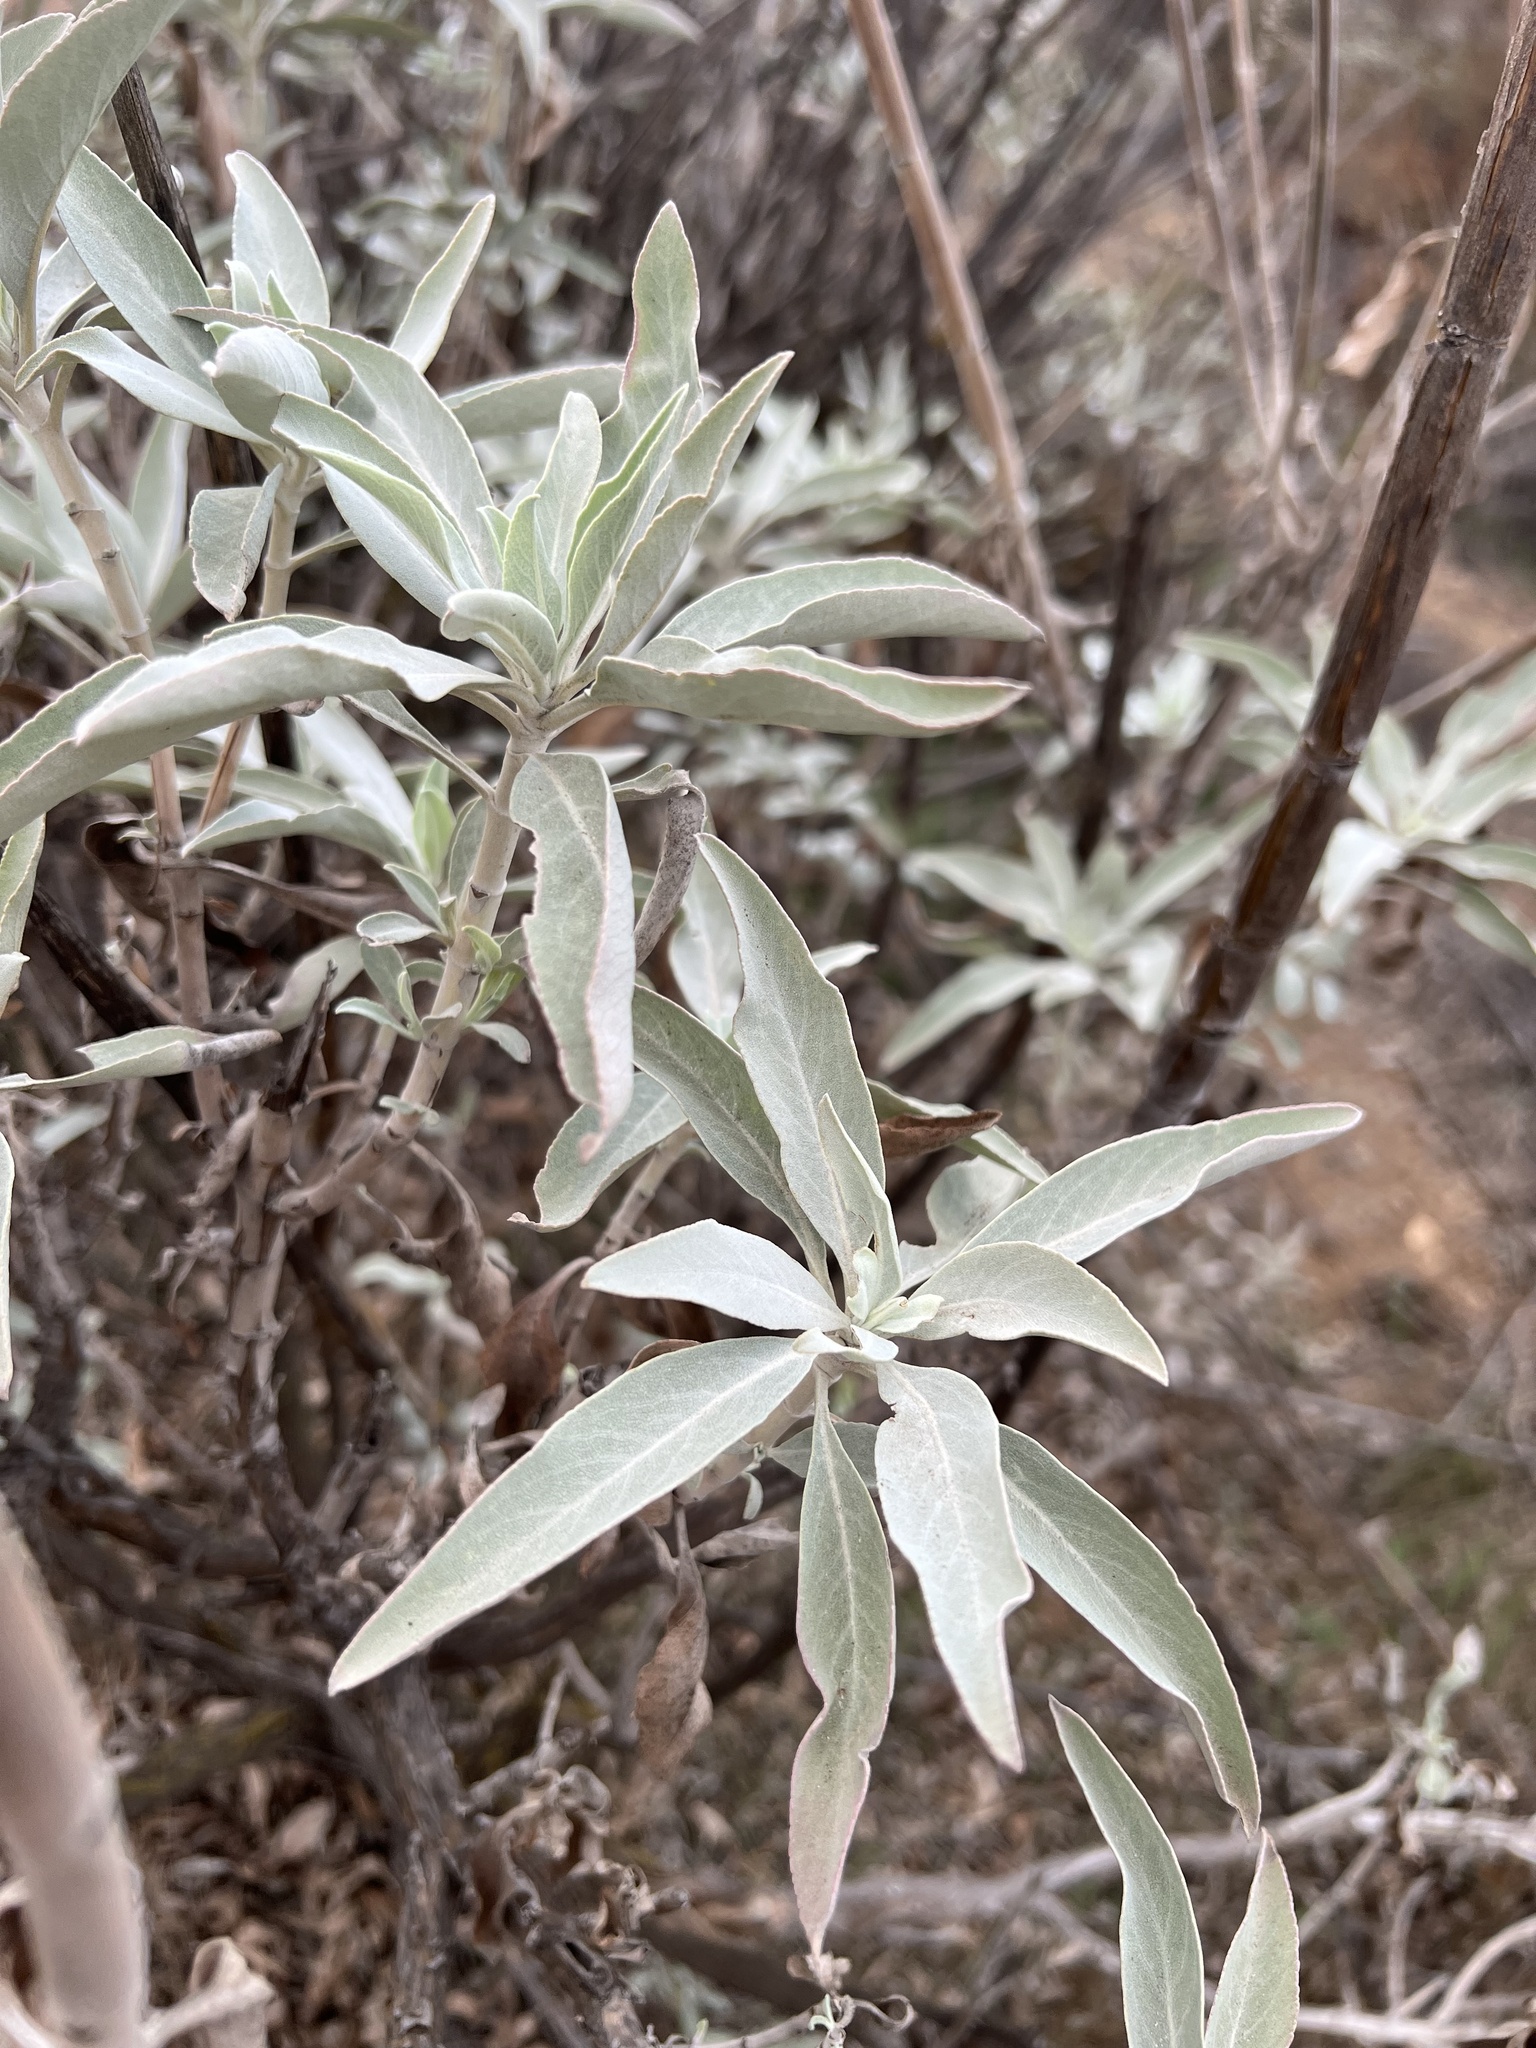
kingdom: Plantae
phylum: Tracheophyta
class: Magnoliopsida
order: Lamiales
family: Lamiaceae
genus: Salvia
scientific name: Salvia apiana
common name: White sage
